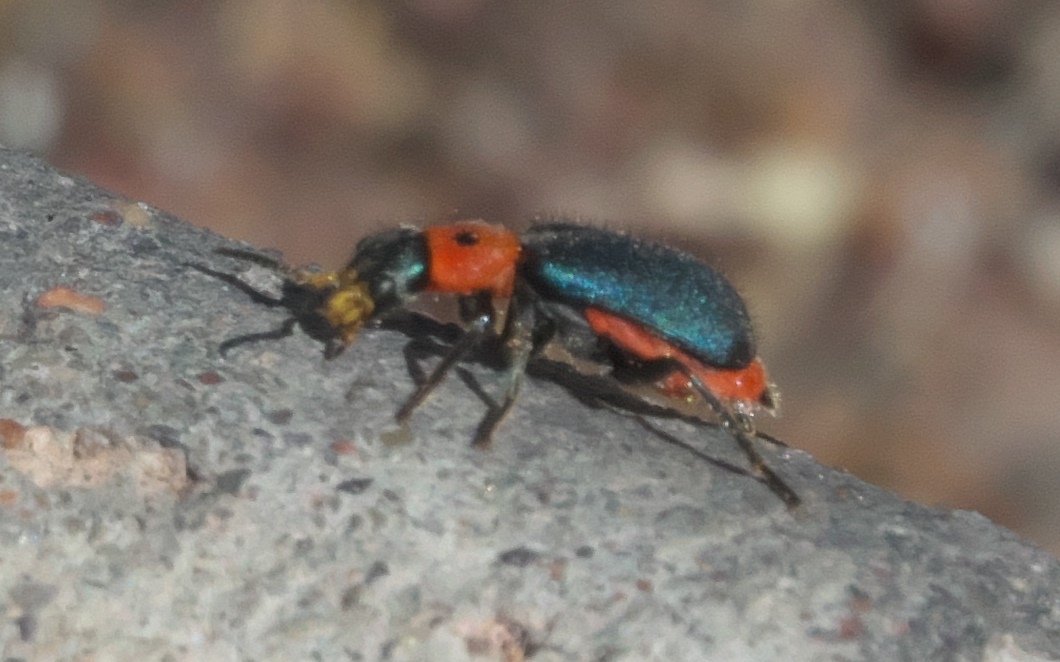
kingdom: Animalia
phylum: Arthropoda
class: Insecta
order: Coleoptera
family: Melyridae
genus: Collops
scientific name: Collops bipunctatus
